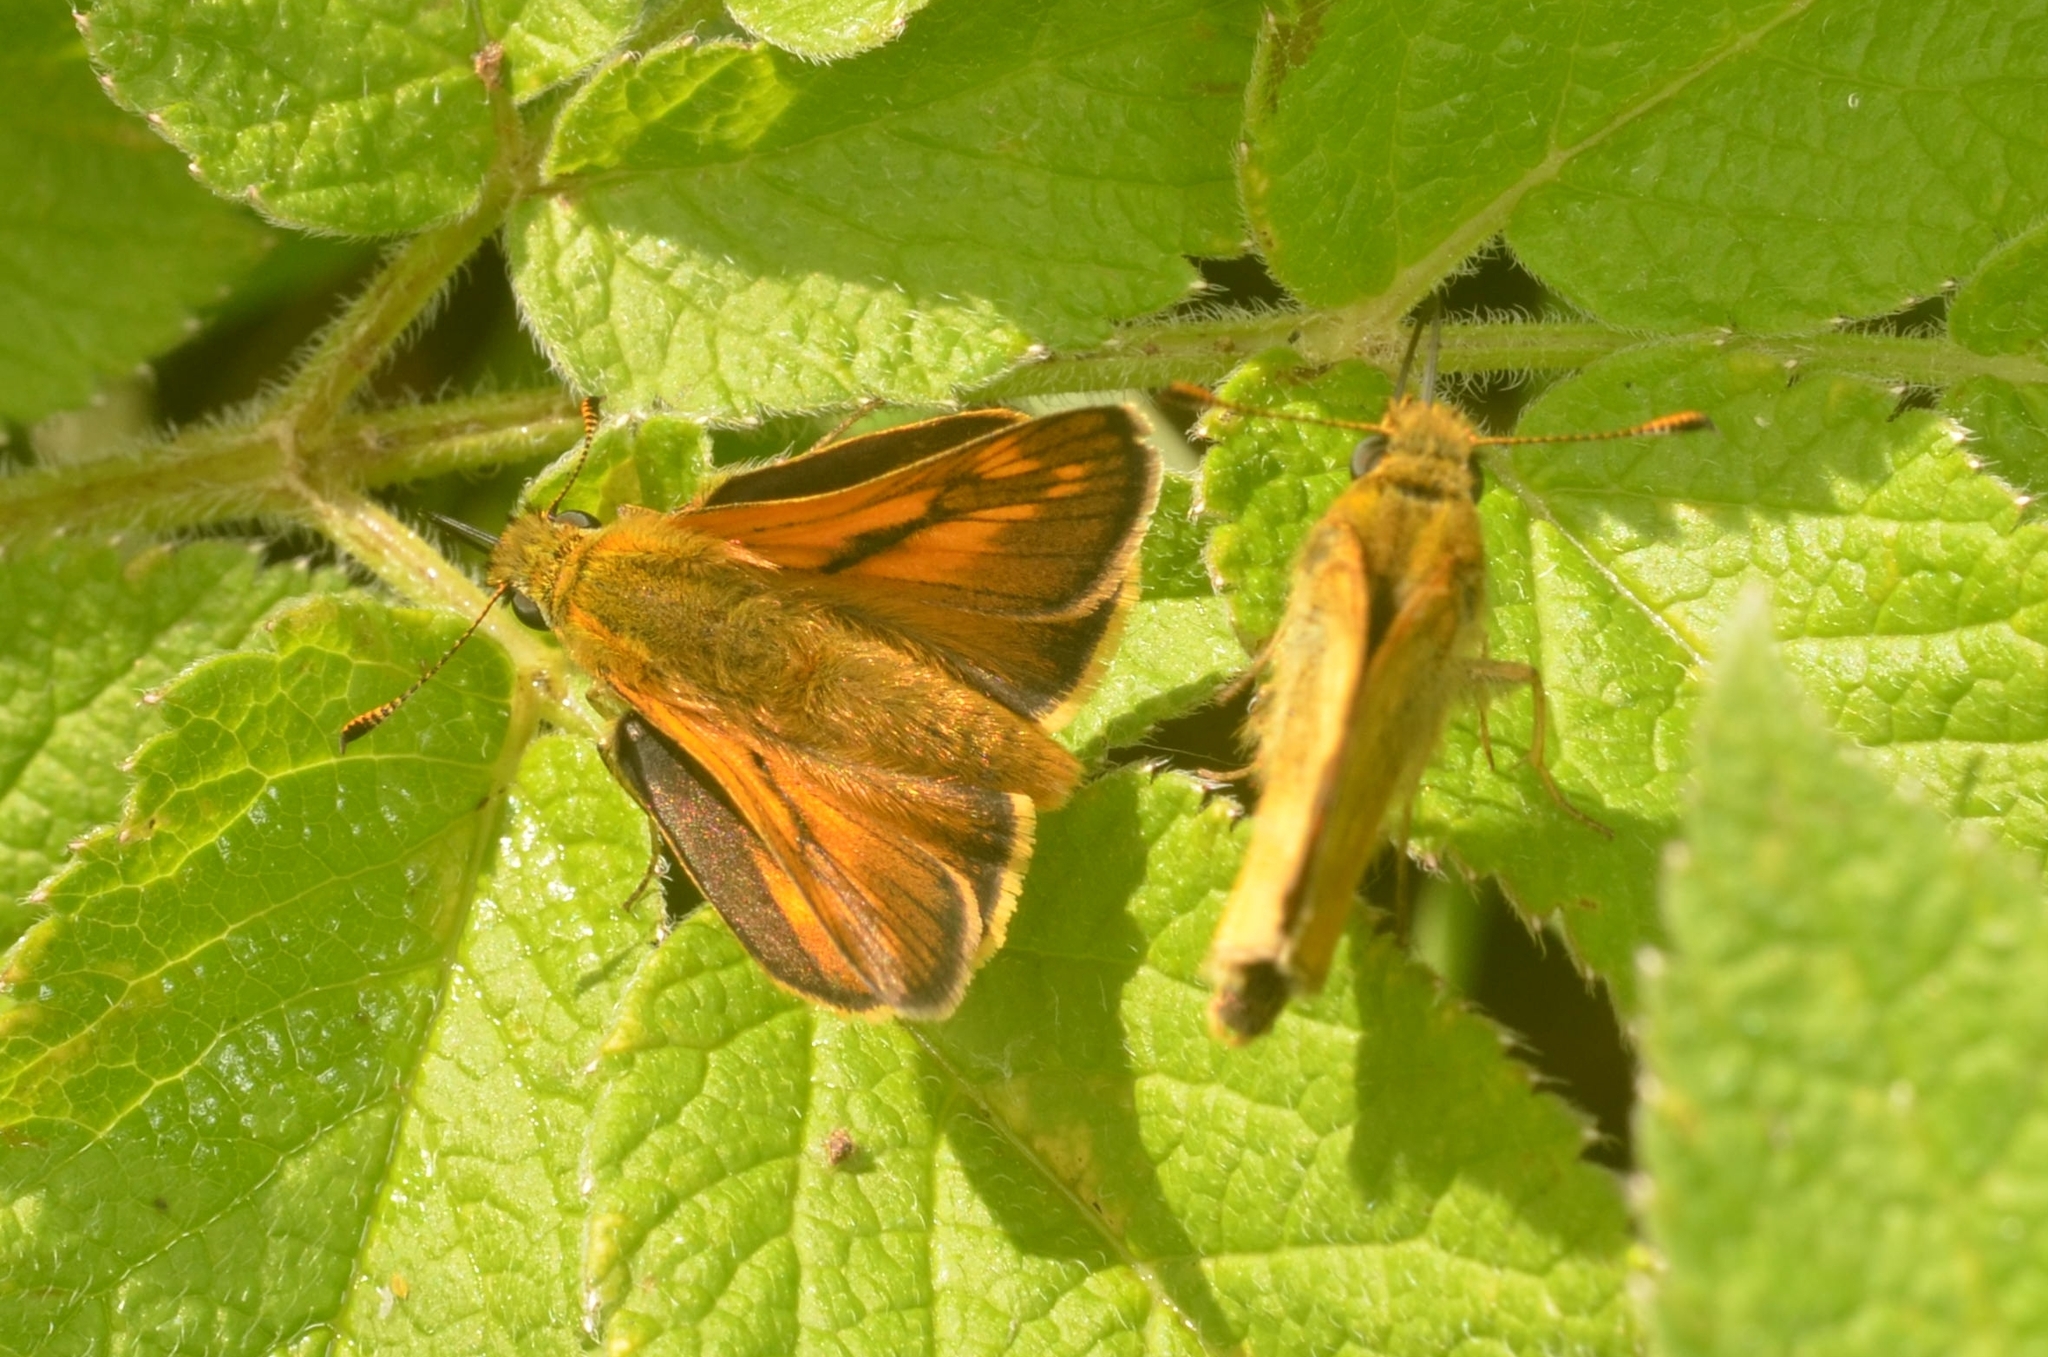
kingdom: Animalia
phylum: Arthropoda
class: Insecta
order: Lepidoptera
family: Hesperiidae
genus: Ochlodes
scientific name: Ochlodes venata
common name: Large skipper
